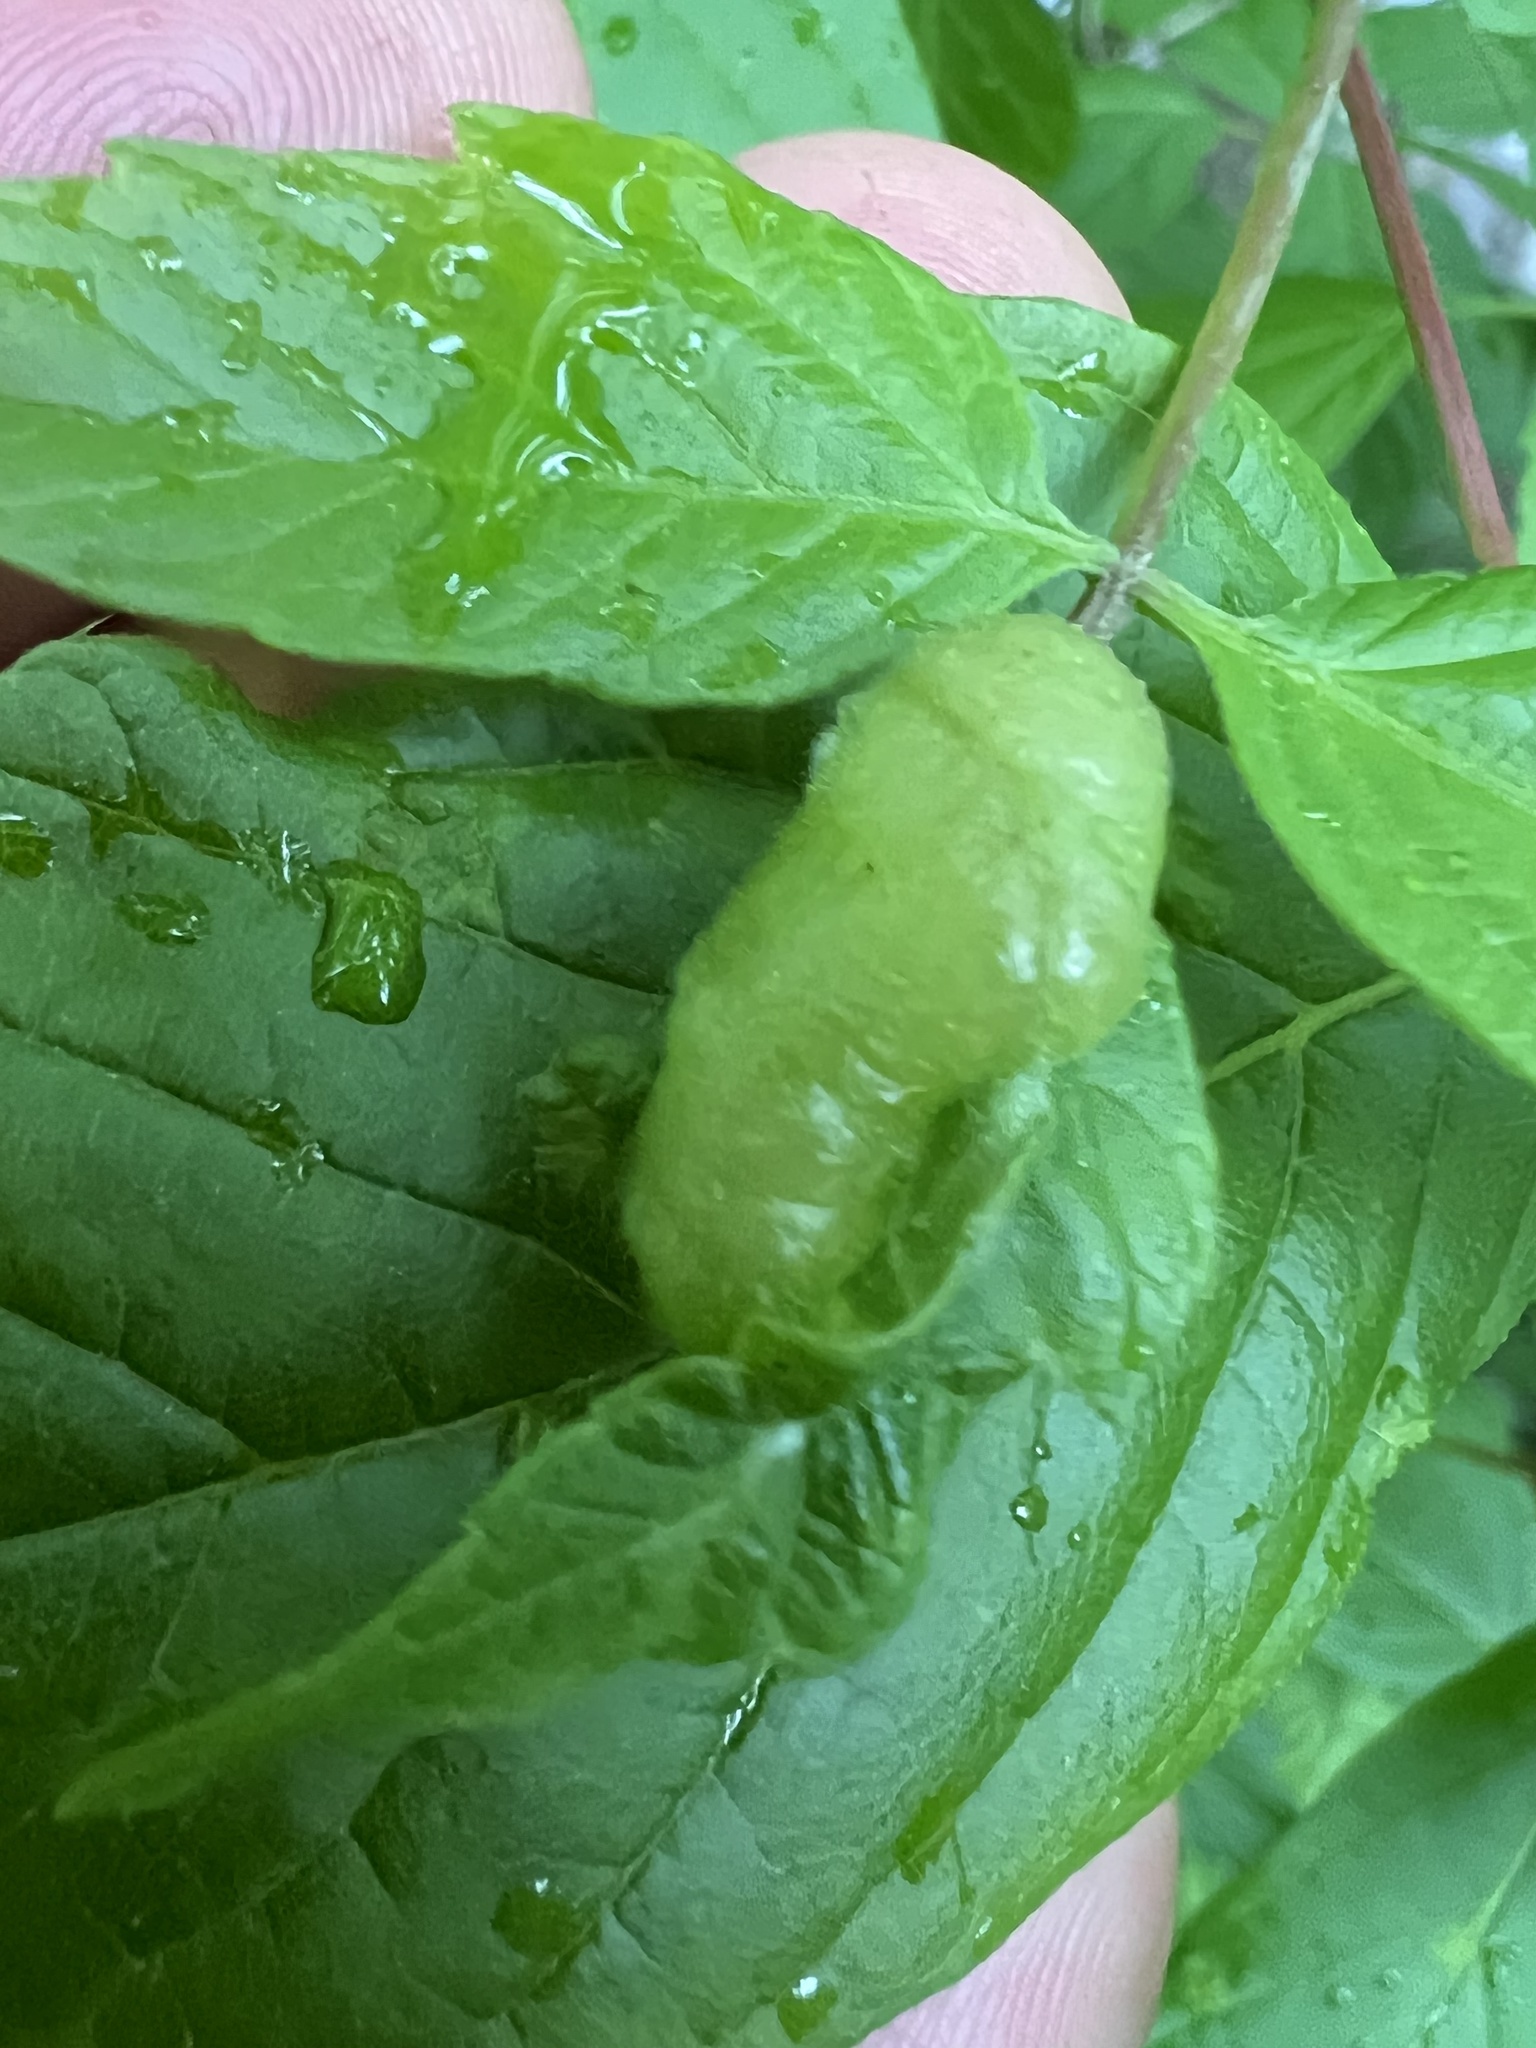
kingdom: Animalia
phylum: Arthropoda
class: Insecta
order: Diptera
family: Cecidomyiidae
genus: Contarinia
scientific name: Contarinia negundinis
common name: Boxelder budgall midge
